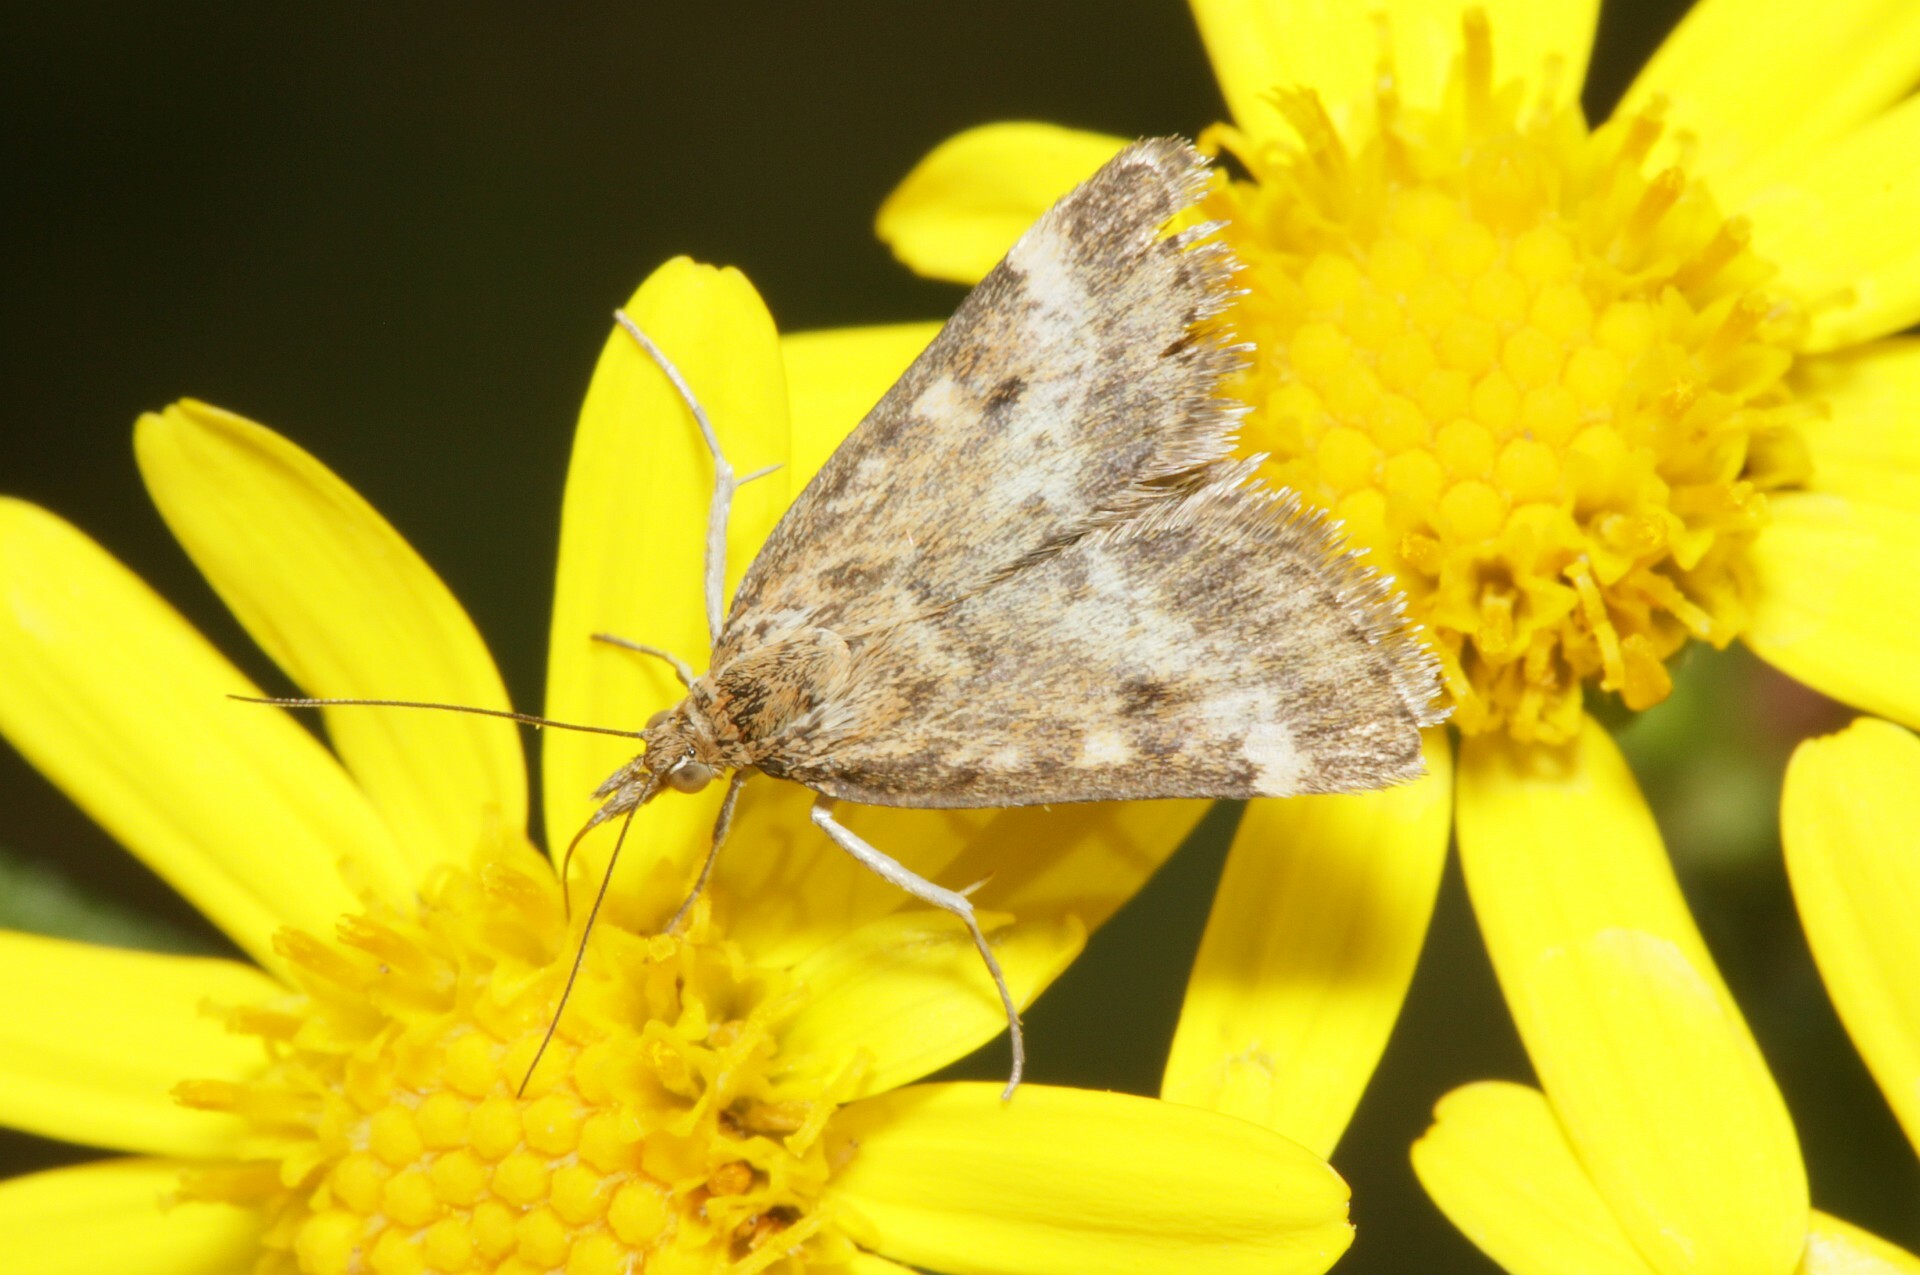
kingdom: Animalia
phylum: Arthropoda
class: Insecta
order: Lepidoptera
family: Crambidae
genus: Pyrausta
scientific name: Pyrausta despicata
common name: Straw-barred pearl
